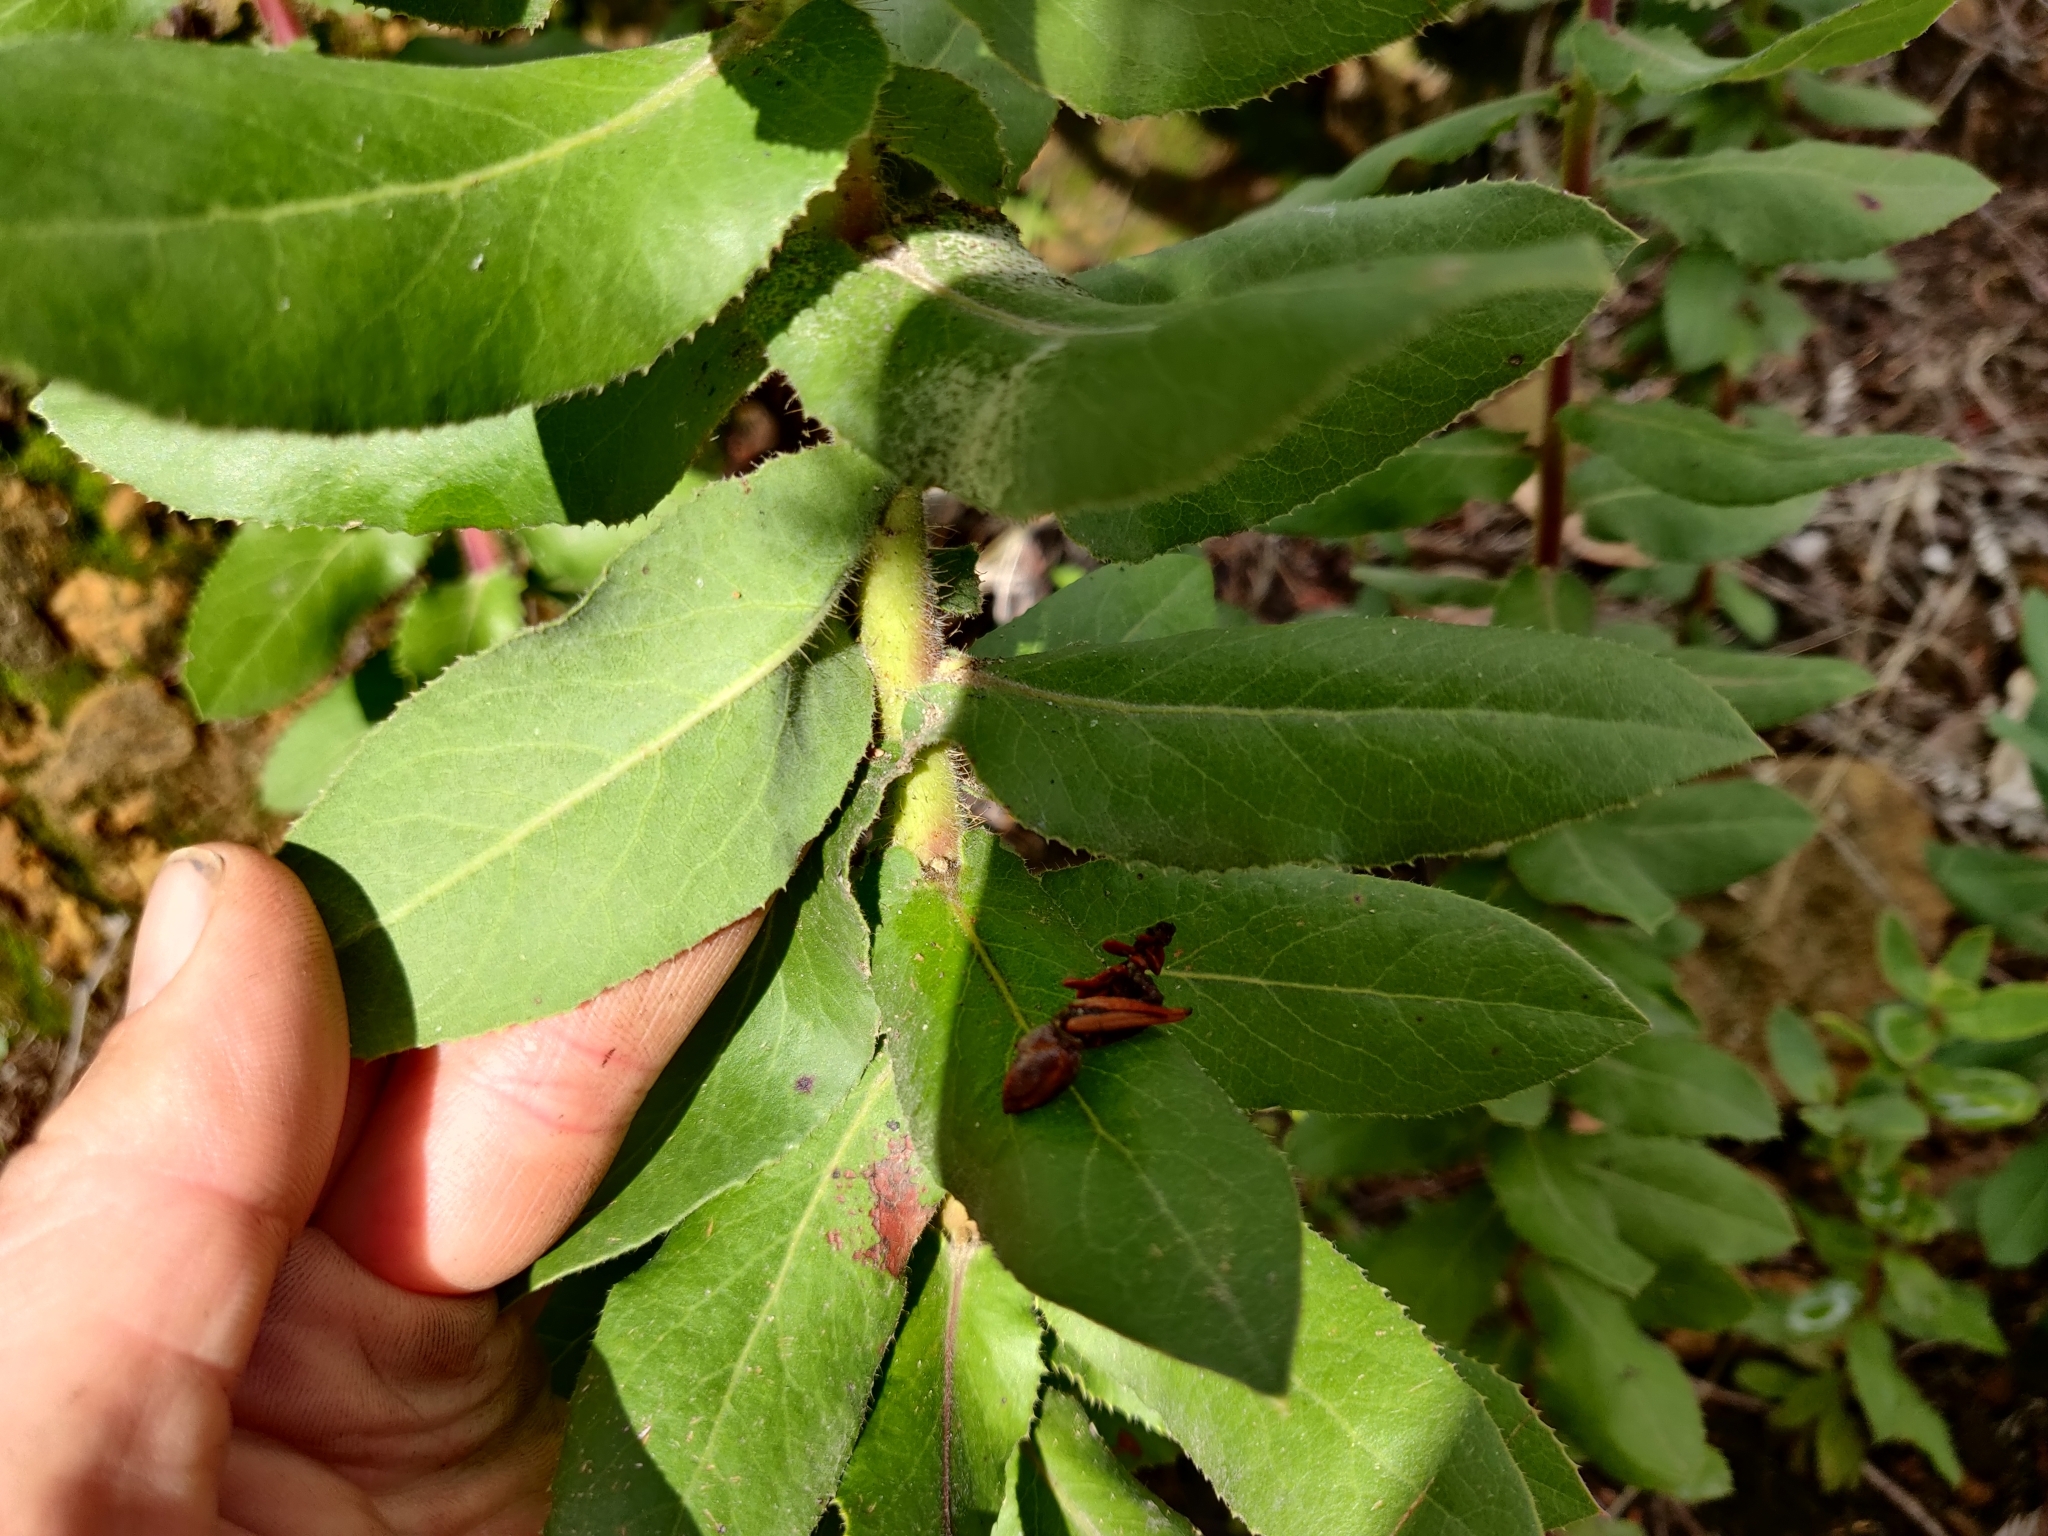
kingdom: Plantae
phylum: Tracheophyta
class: Magnoliopsida
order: Ericales
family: Ericaceae
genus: Arctostaphylos
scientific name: Arctostaphylos andersonii
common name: Santa cruz manzanita
